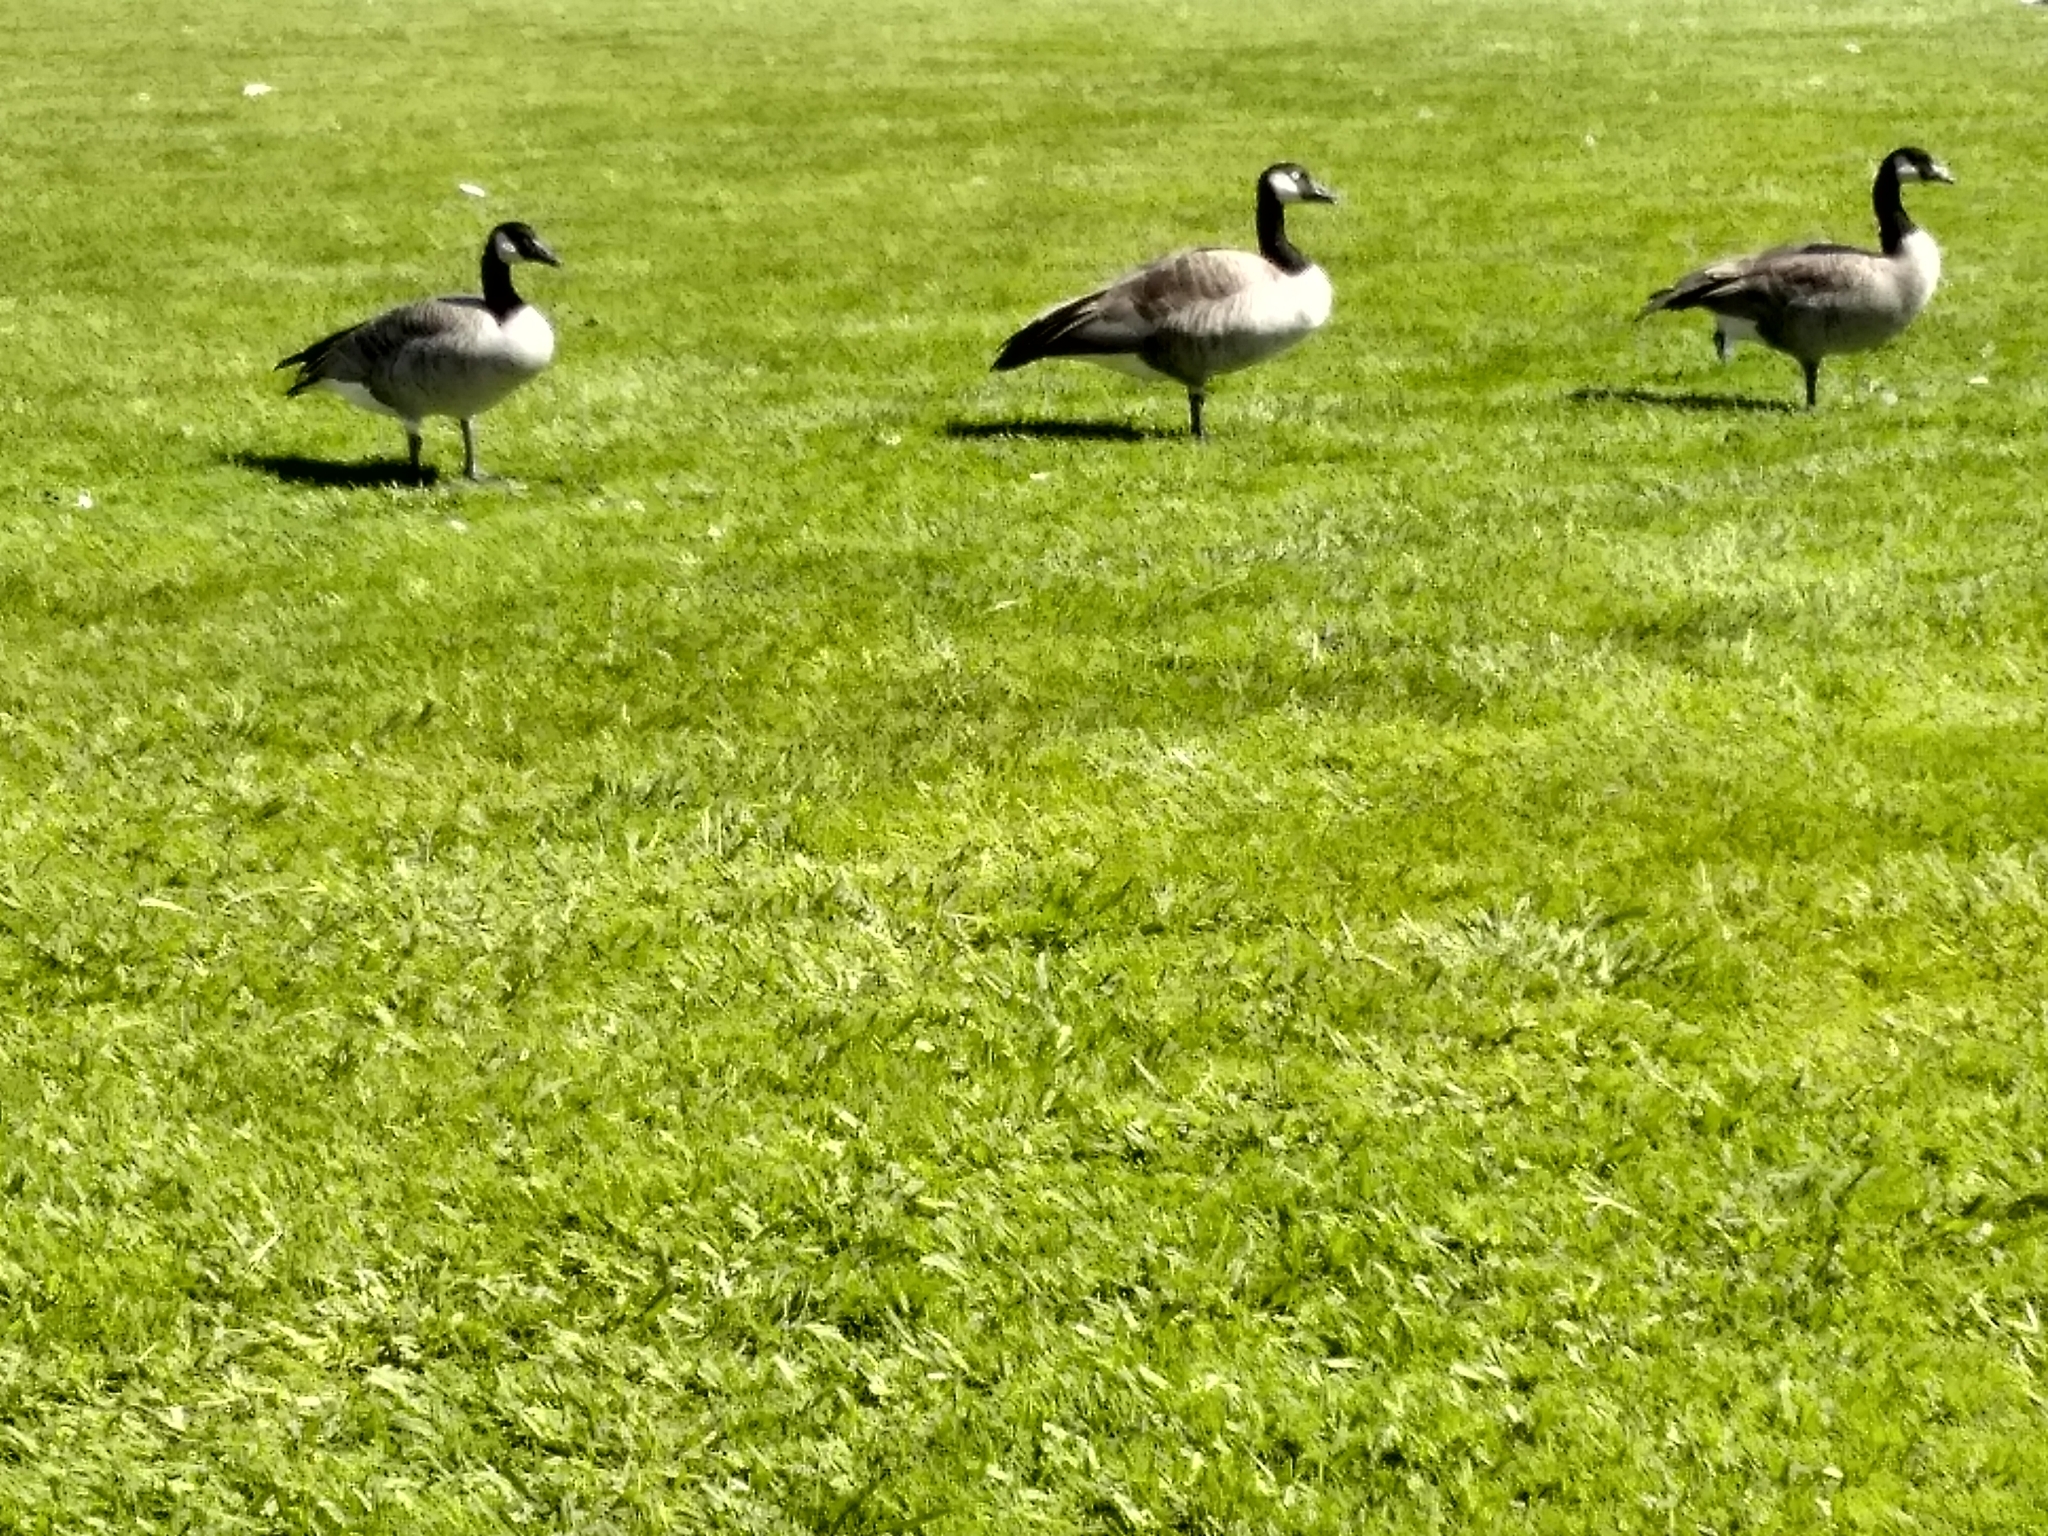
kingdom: Animalia
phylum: Chordata
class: Aves
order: Anseriformes
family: Anatidae
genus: Branta
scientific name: Branta canadensis
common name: Canada goose
